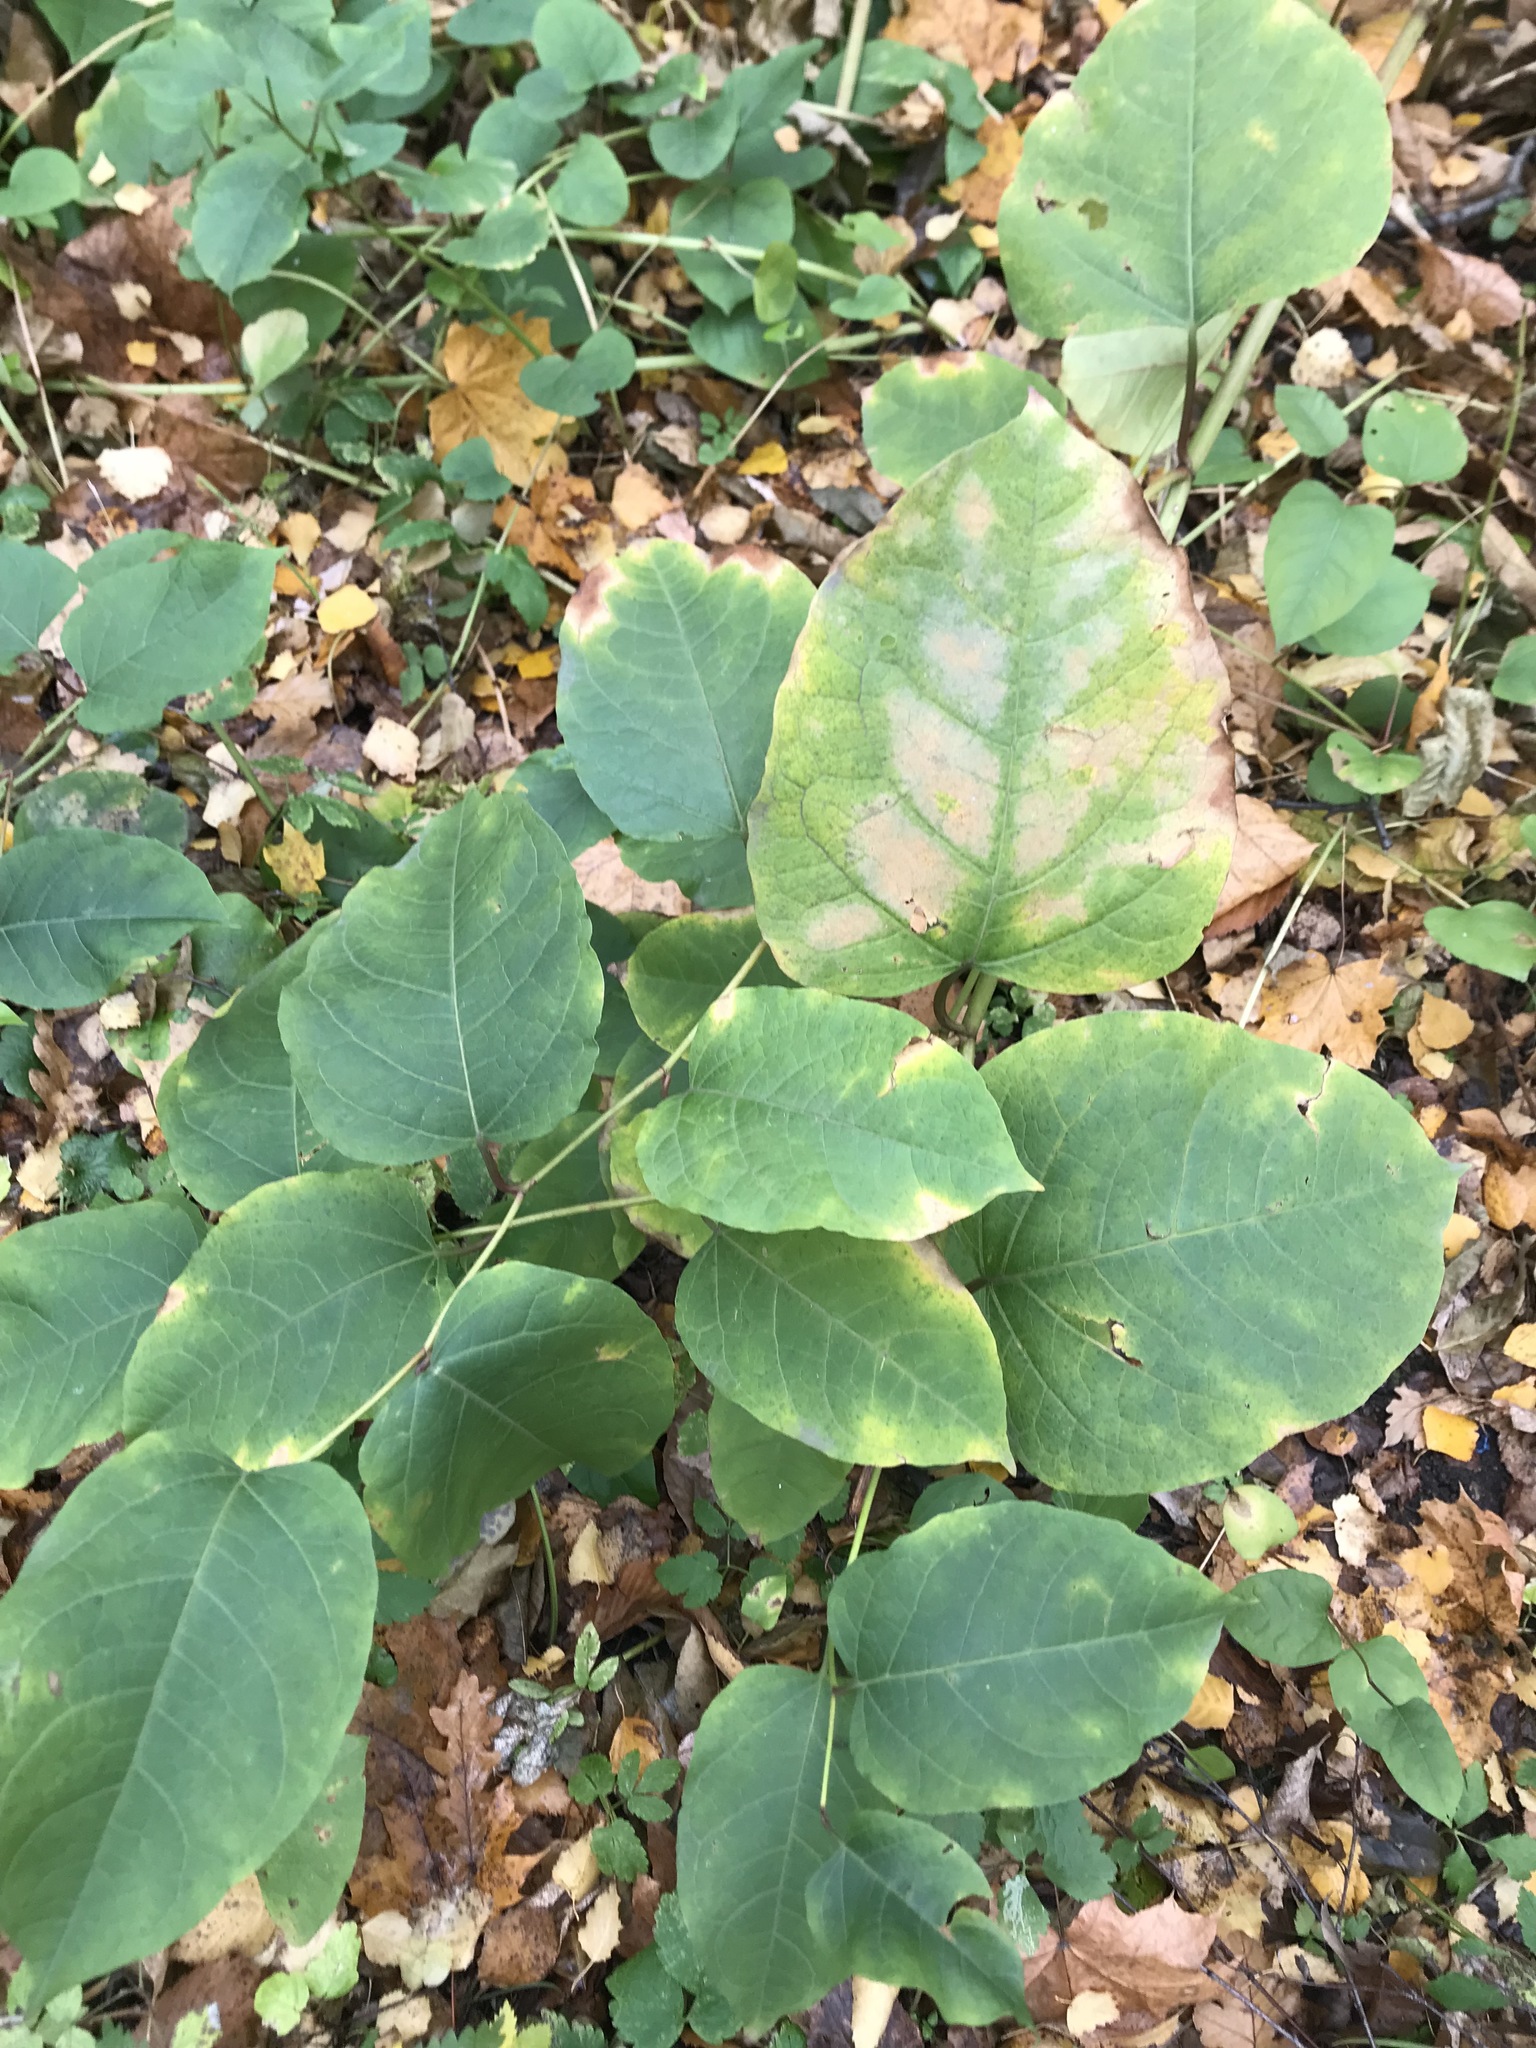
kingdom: Plantae
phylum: Tracheophyta
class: Magnoliopsida
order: Caryophyllales
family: Polygonaceae
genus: Reynoutria
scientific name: Reynoutria bohemica
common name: Bohemian knotweed
